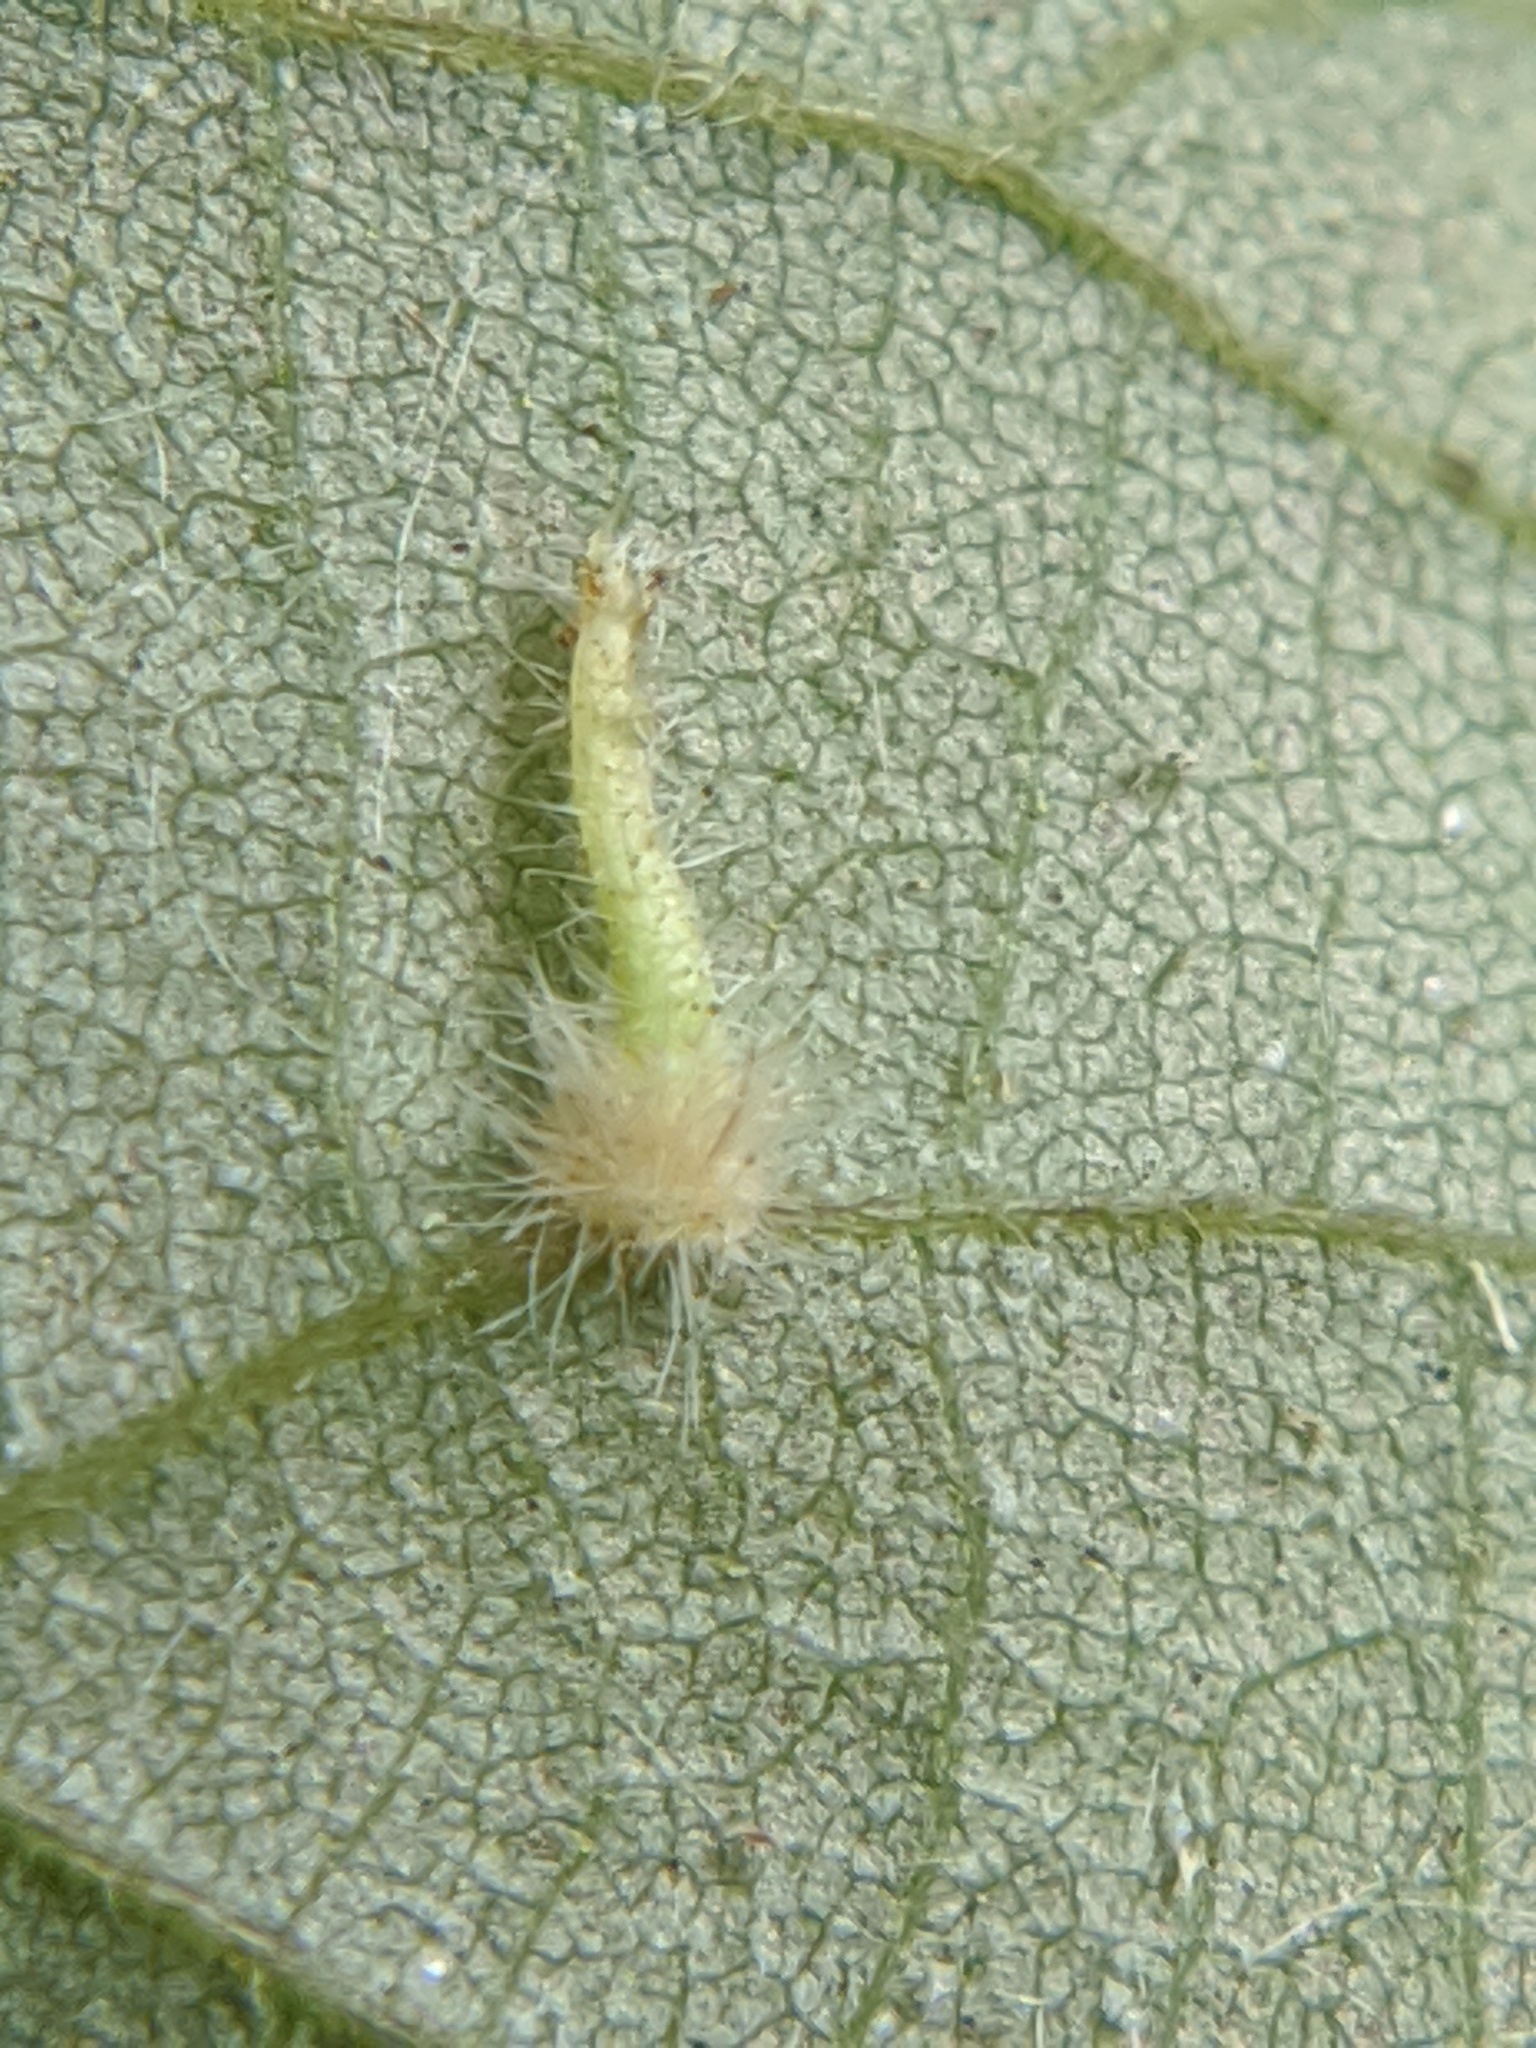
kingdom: Animalia
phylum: Arthropoda
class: Insecta
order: Diptera
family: Cecidomyiidae
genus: Caryomyia
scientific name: Caryomyia inclinata
